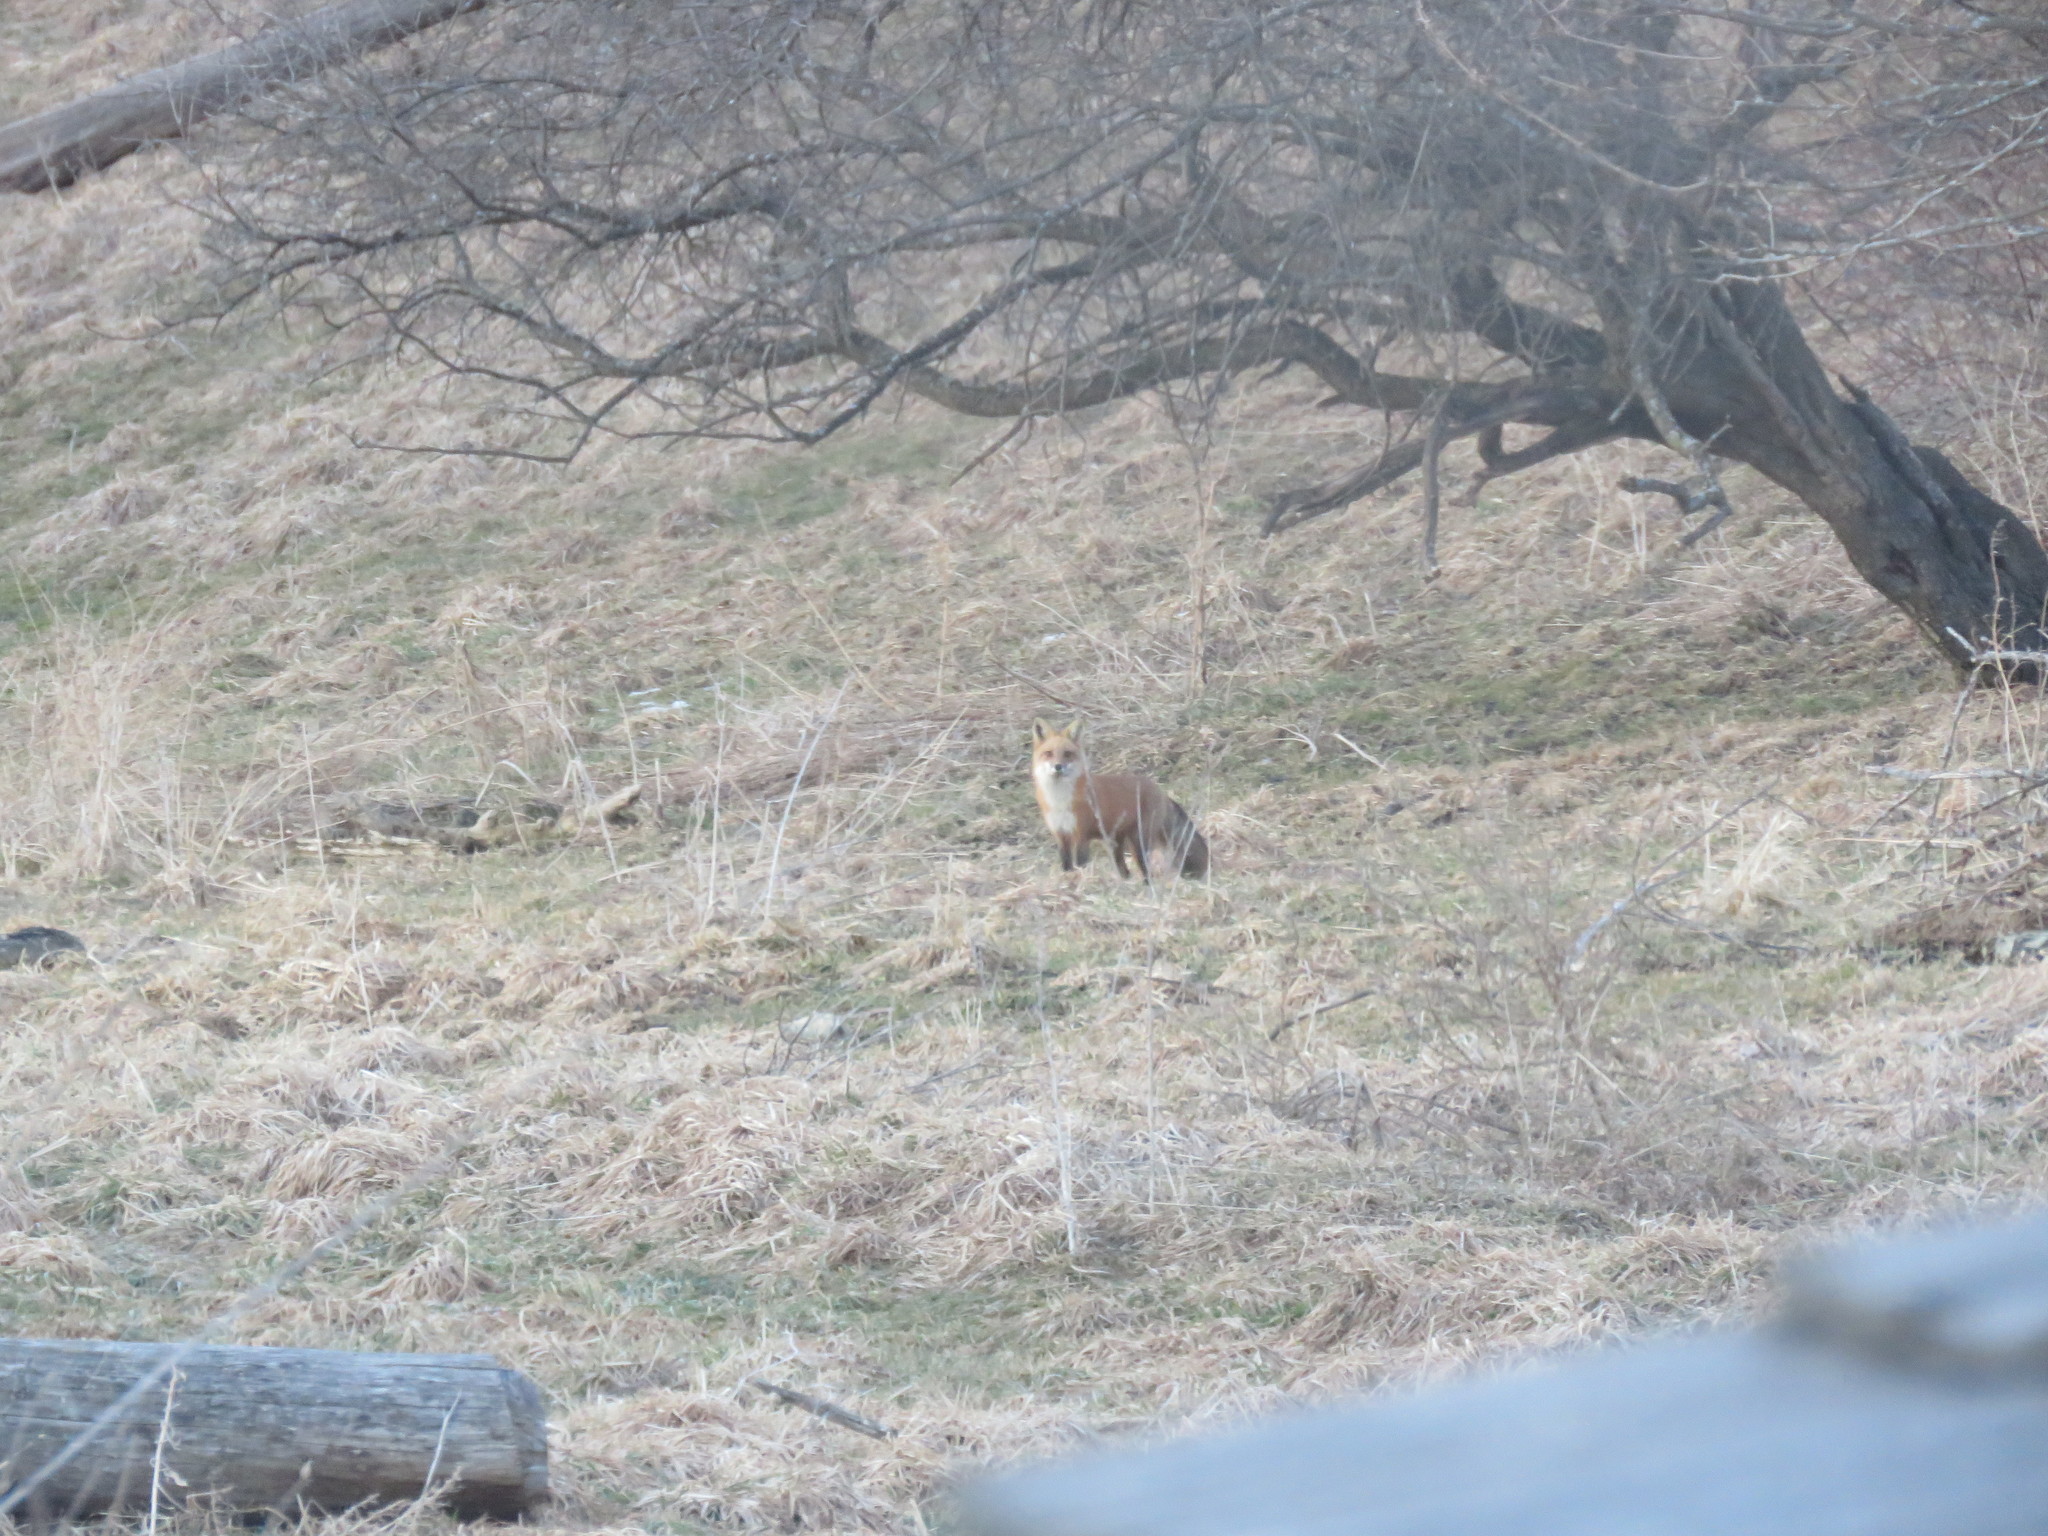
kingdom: Animalia
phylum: Chordata
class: Mammalia
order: Carnivora
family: Canidae
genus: Vulpes
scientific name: Vulpes vulpes
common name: Red fox
